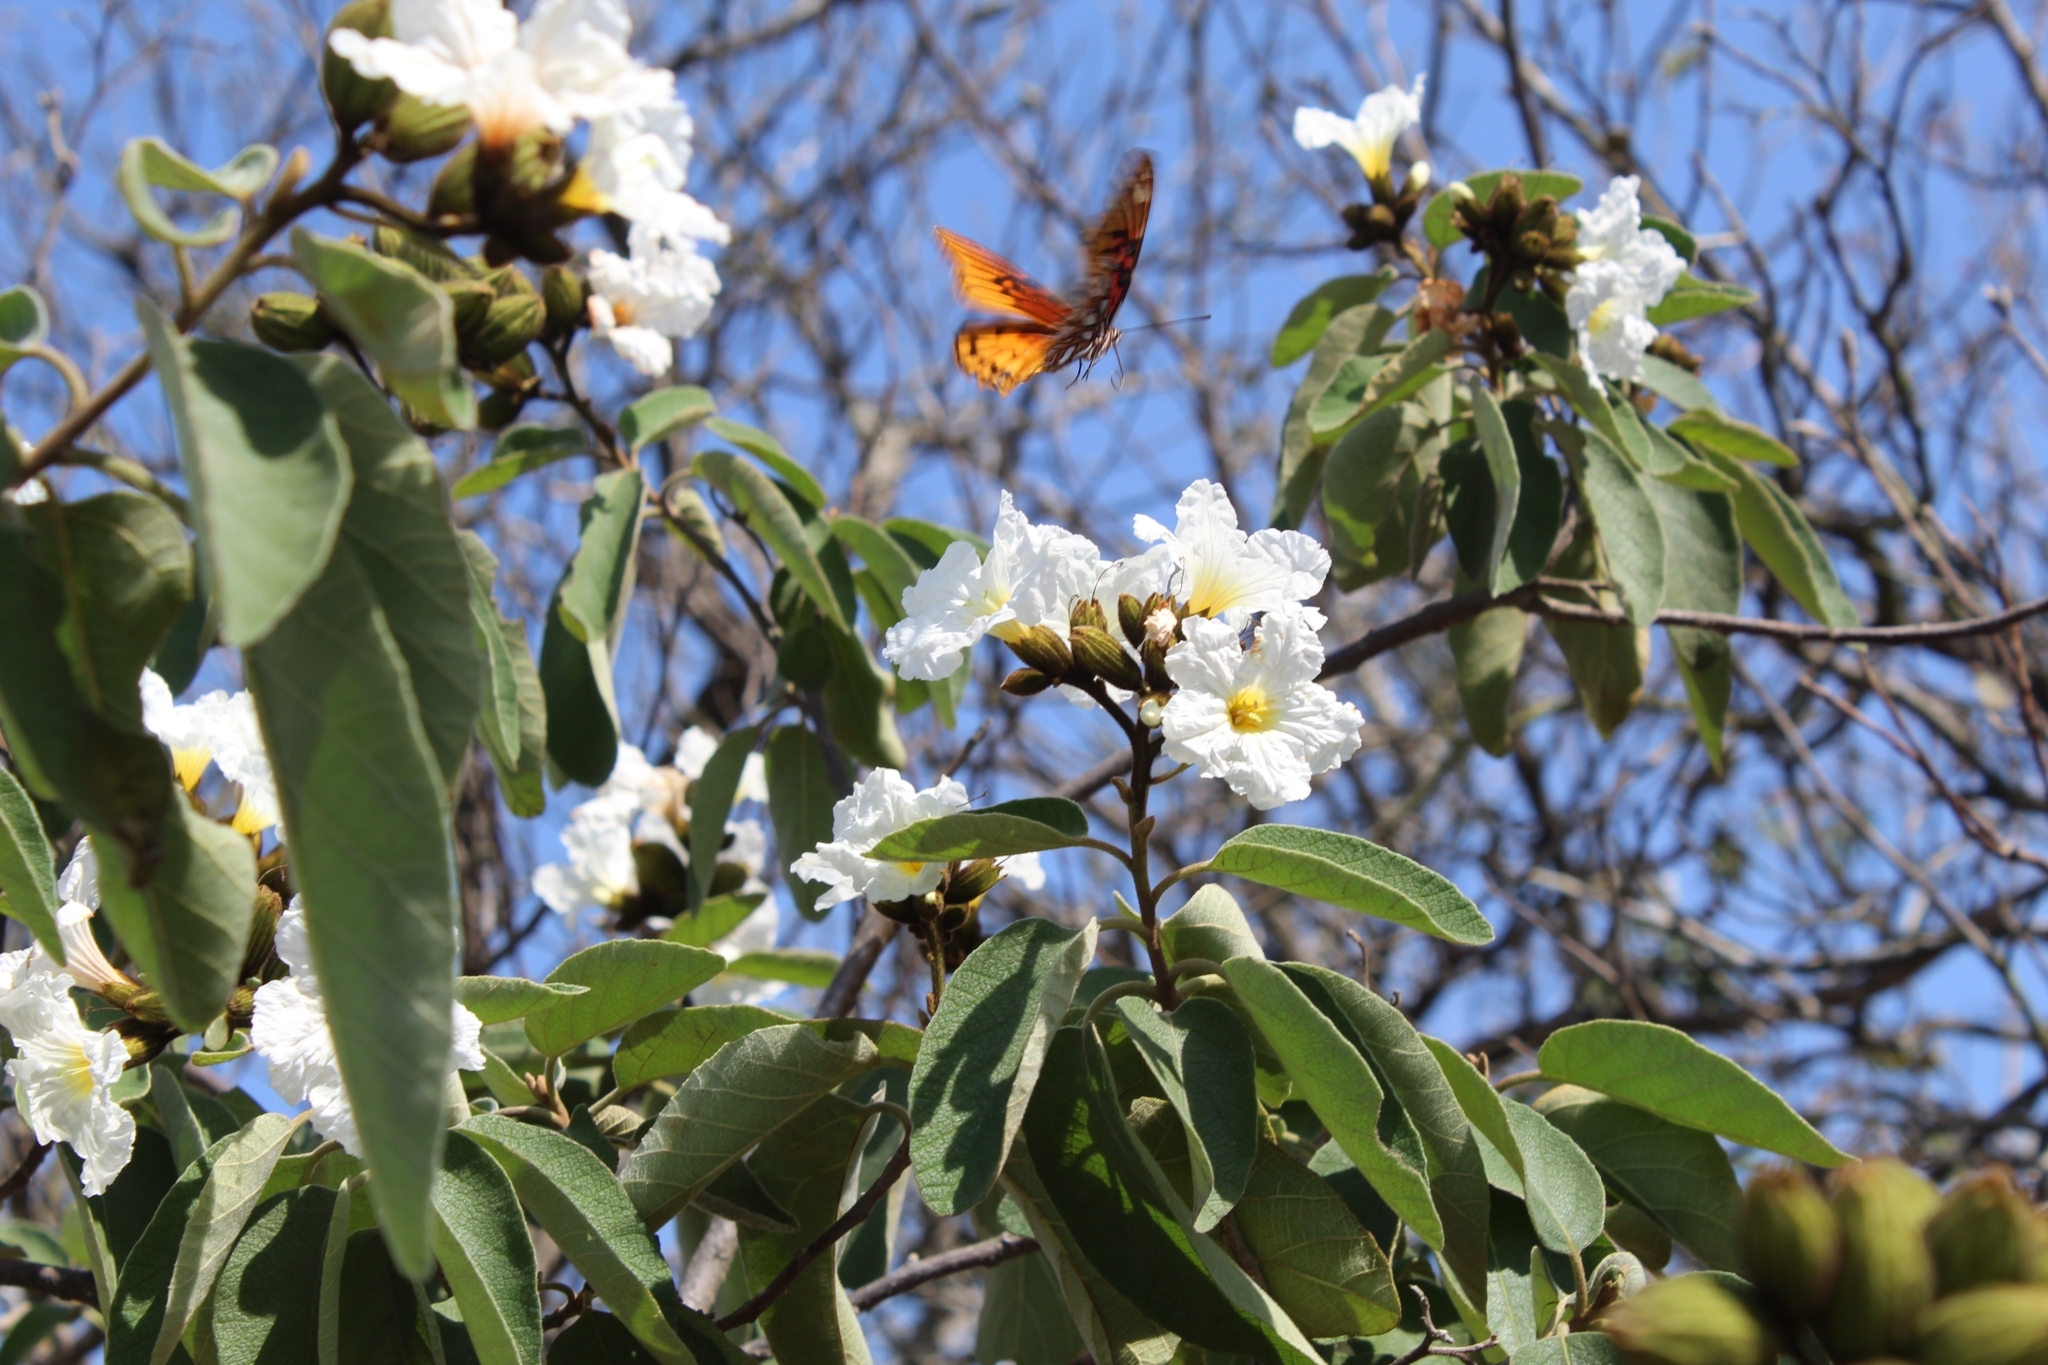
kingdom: Animalia
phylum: Arthropoda
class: Insecta
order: Lepidoptera
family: Nymphalidae
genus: Dione
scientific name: Dione moneta
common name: Mexican silverspot
